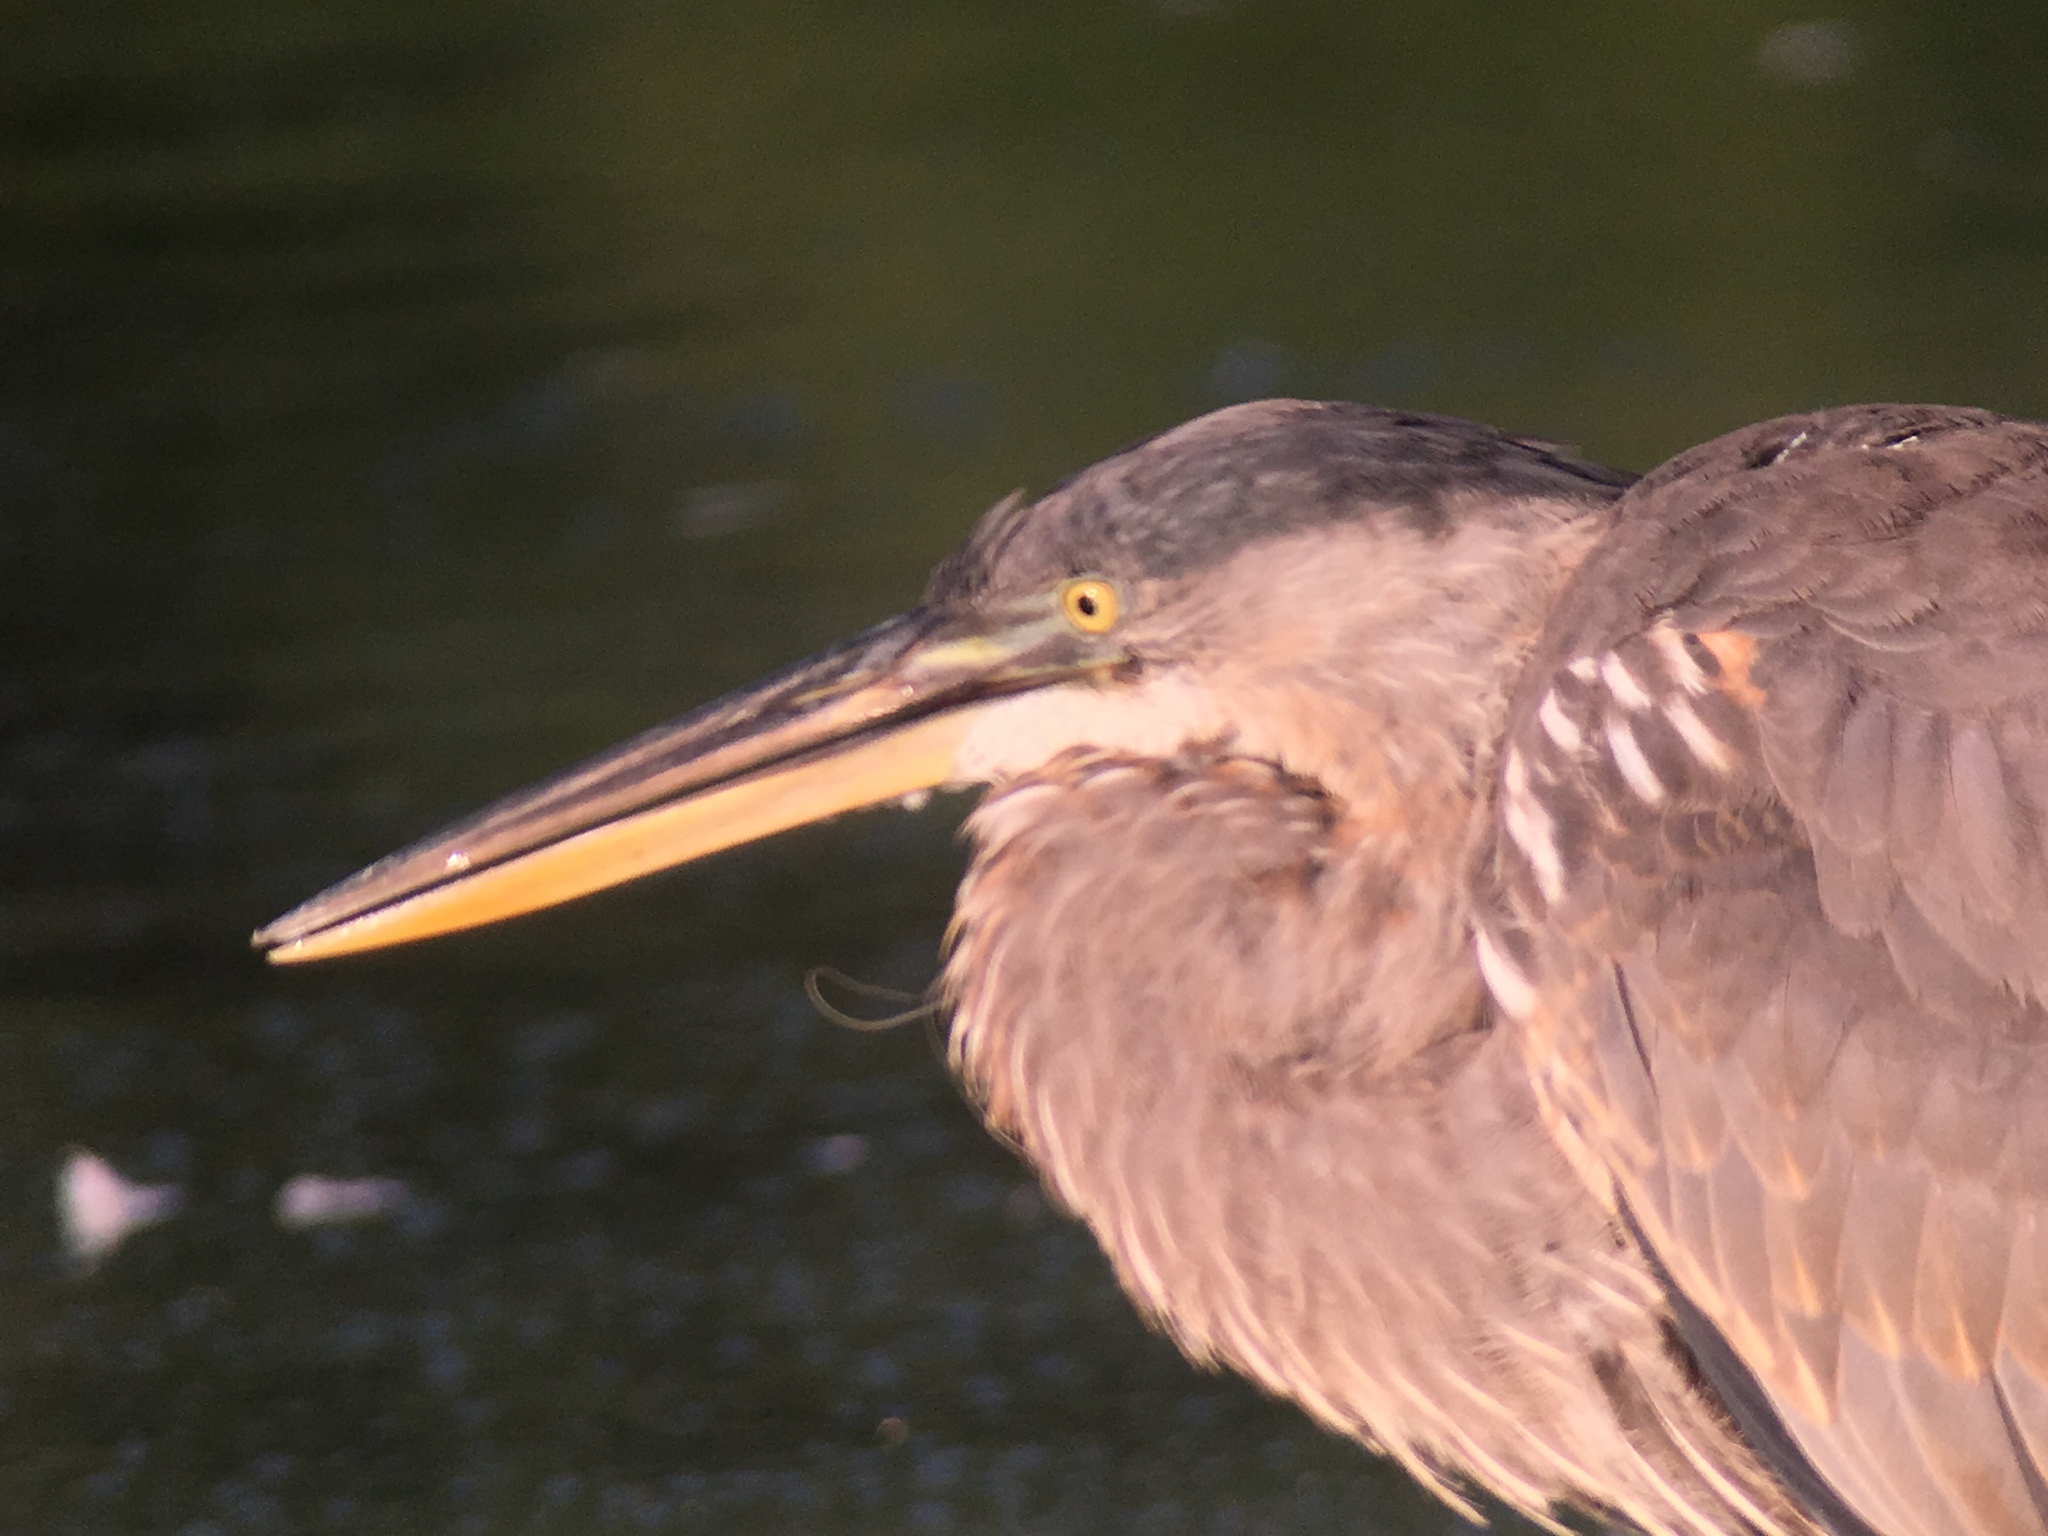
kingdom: Animalia
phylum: Chordata
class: Aves
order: Pelecaniformes
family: Ardeidae
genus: Ardea
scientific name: Ardea herodias
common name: Great blue heron
